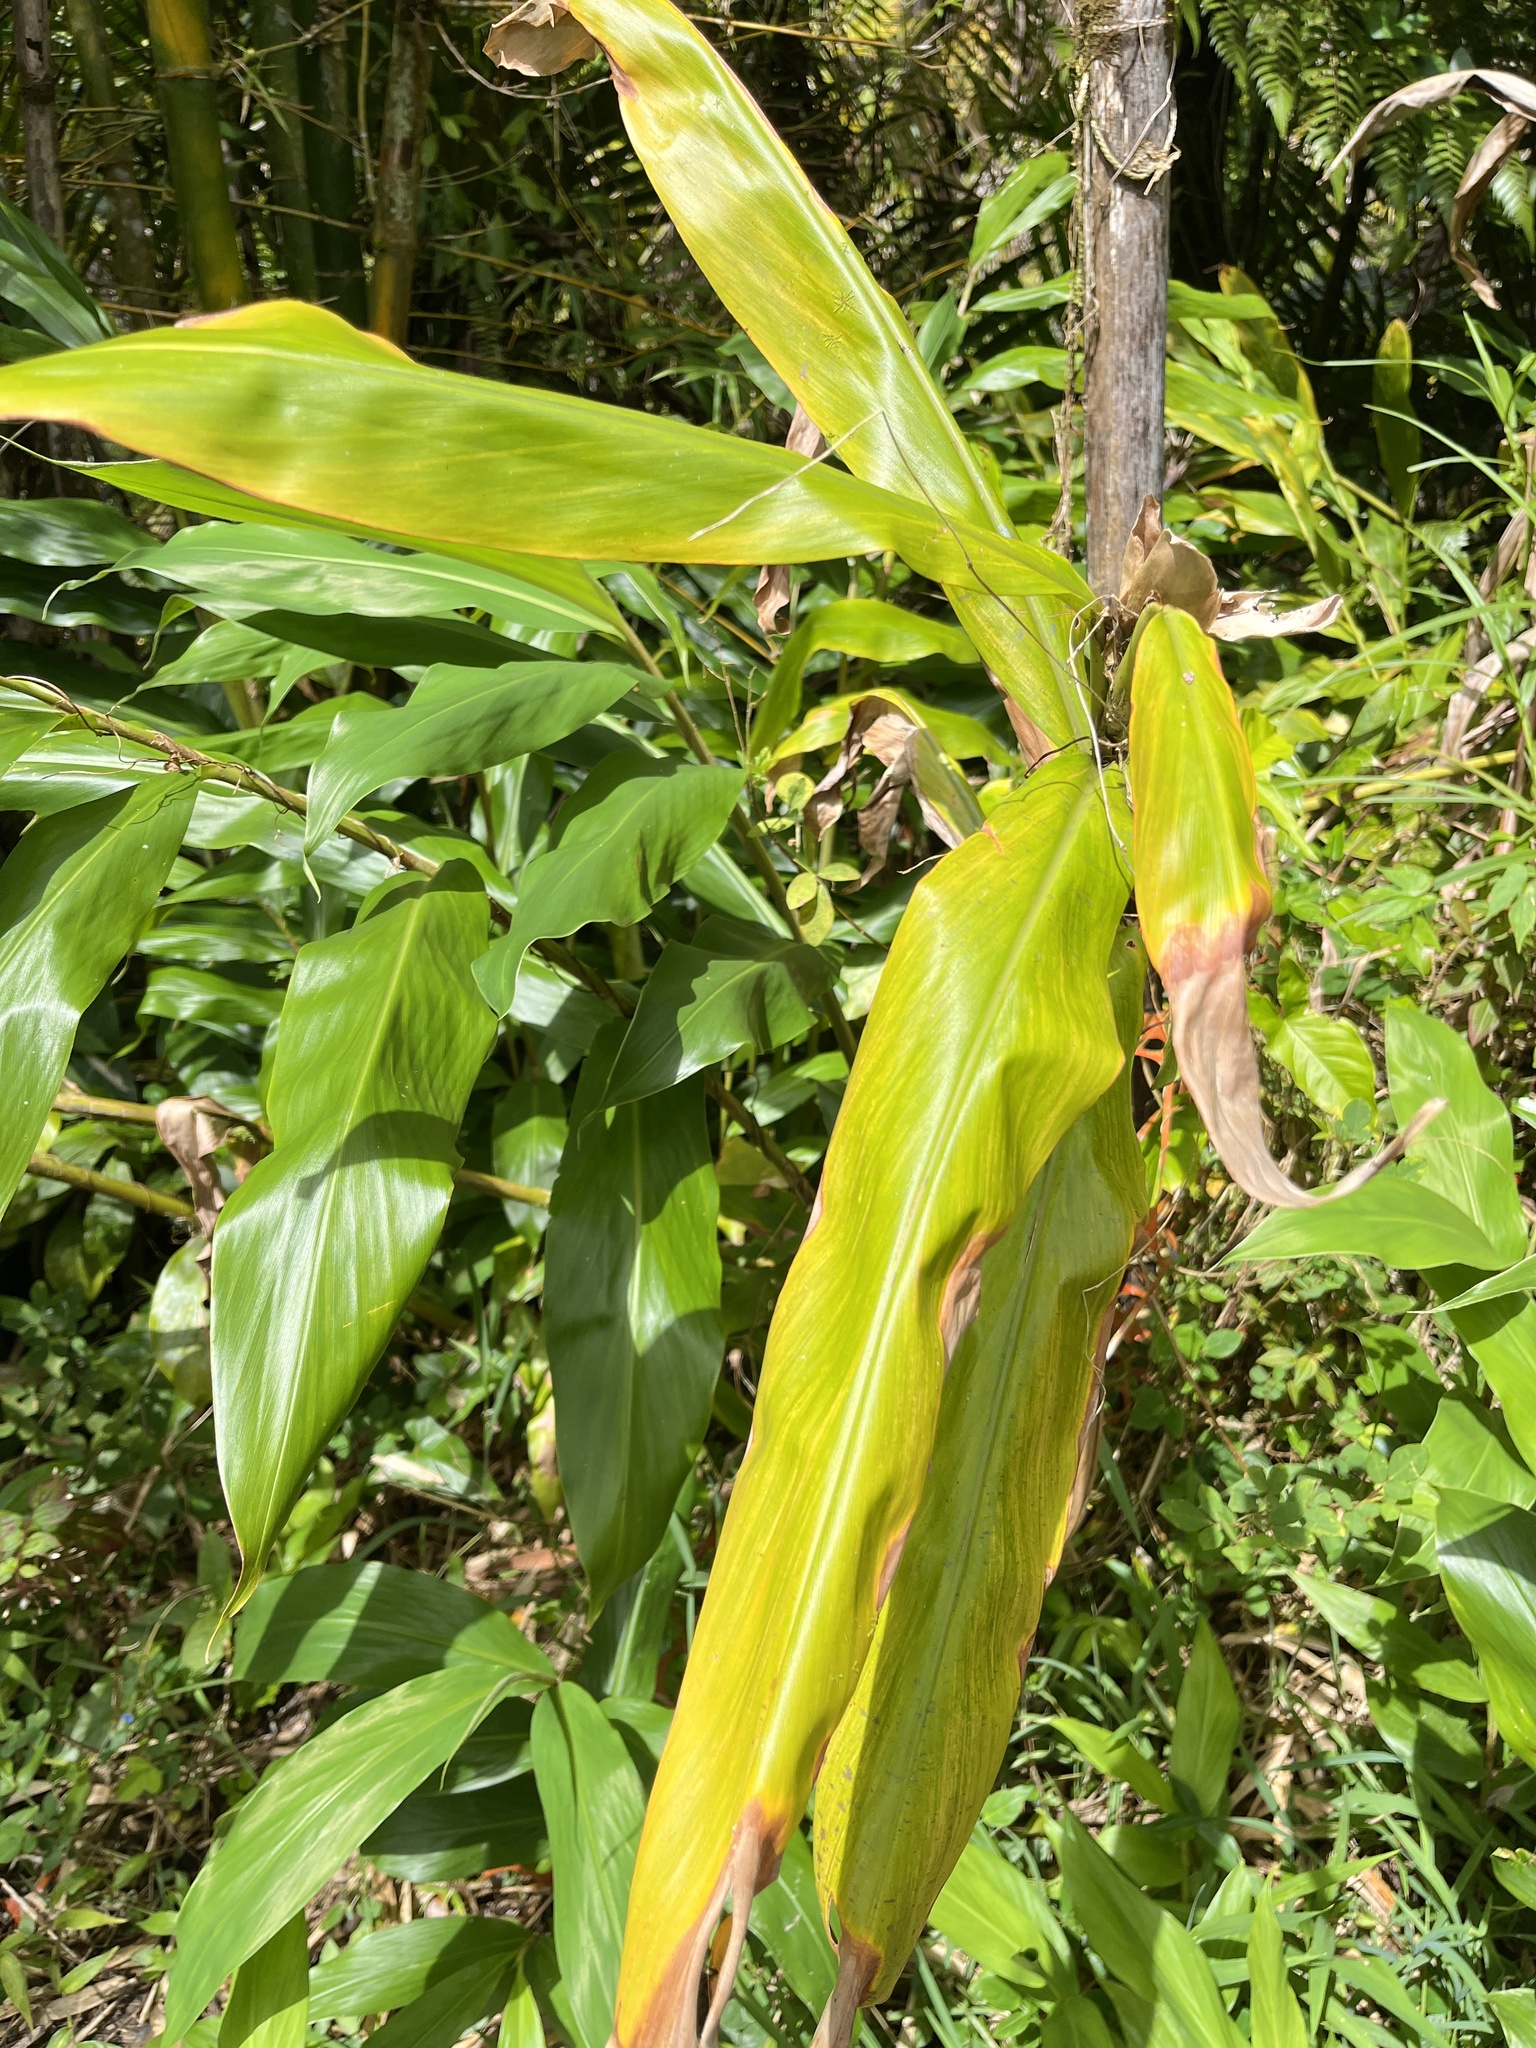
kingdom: Plantae
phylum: Tracheophyta
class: Liliopsida
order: Zingiberales
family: Zingiberaceae
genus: Hedychium
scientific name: Hedychium coronarium
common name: White garland-lily
